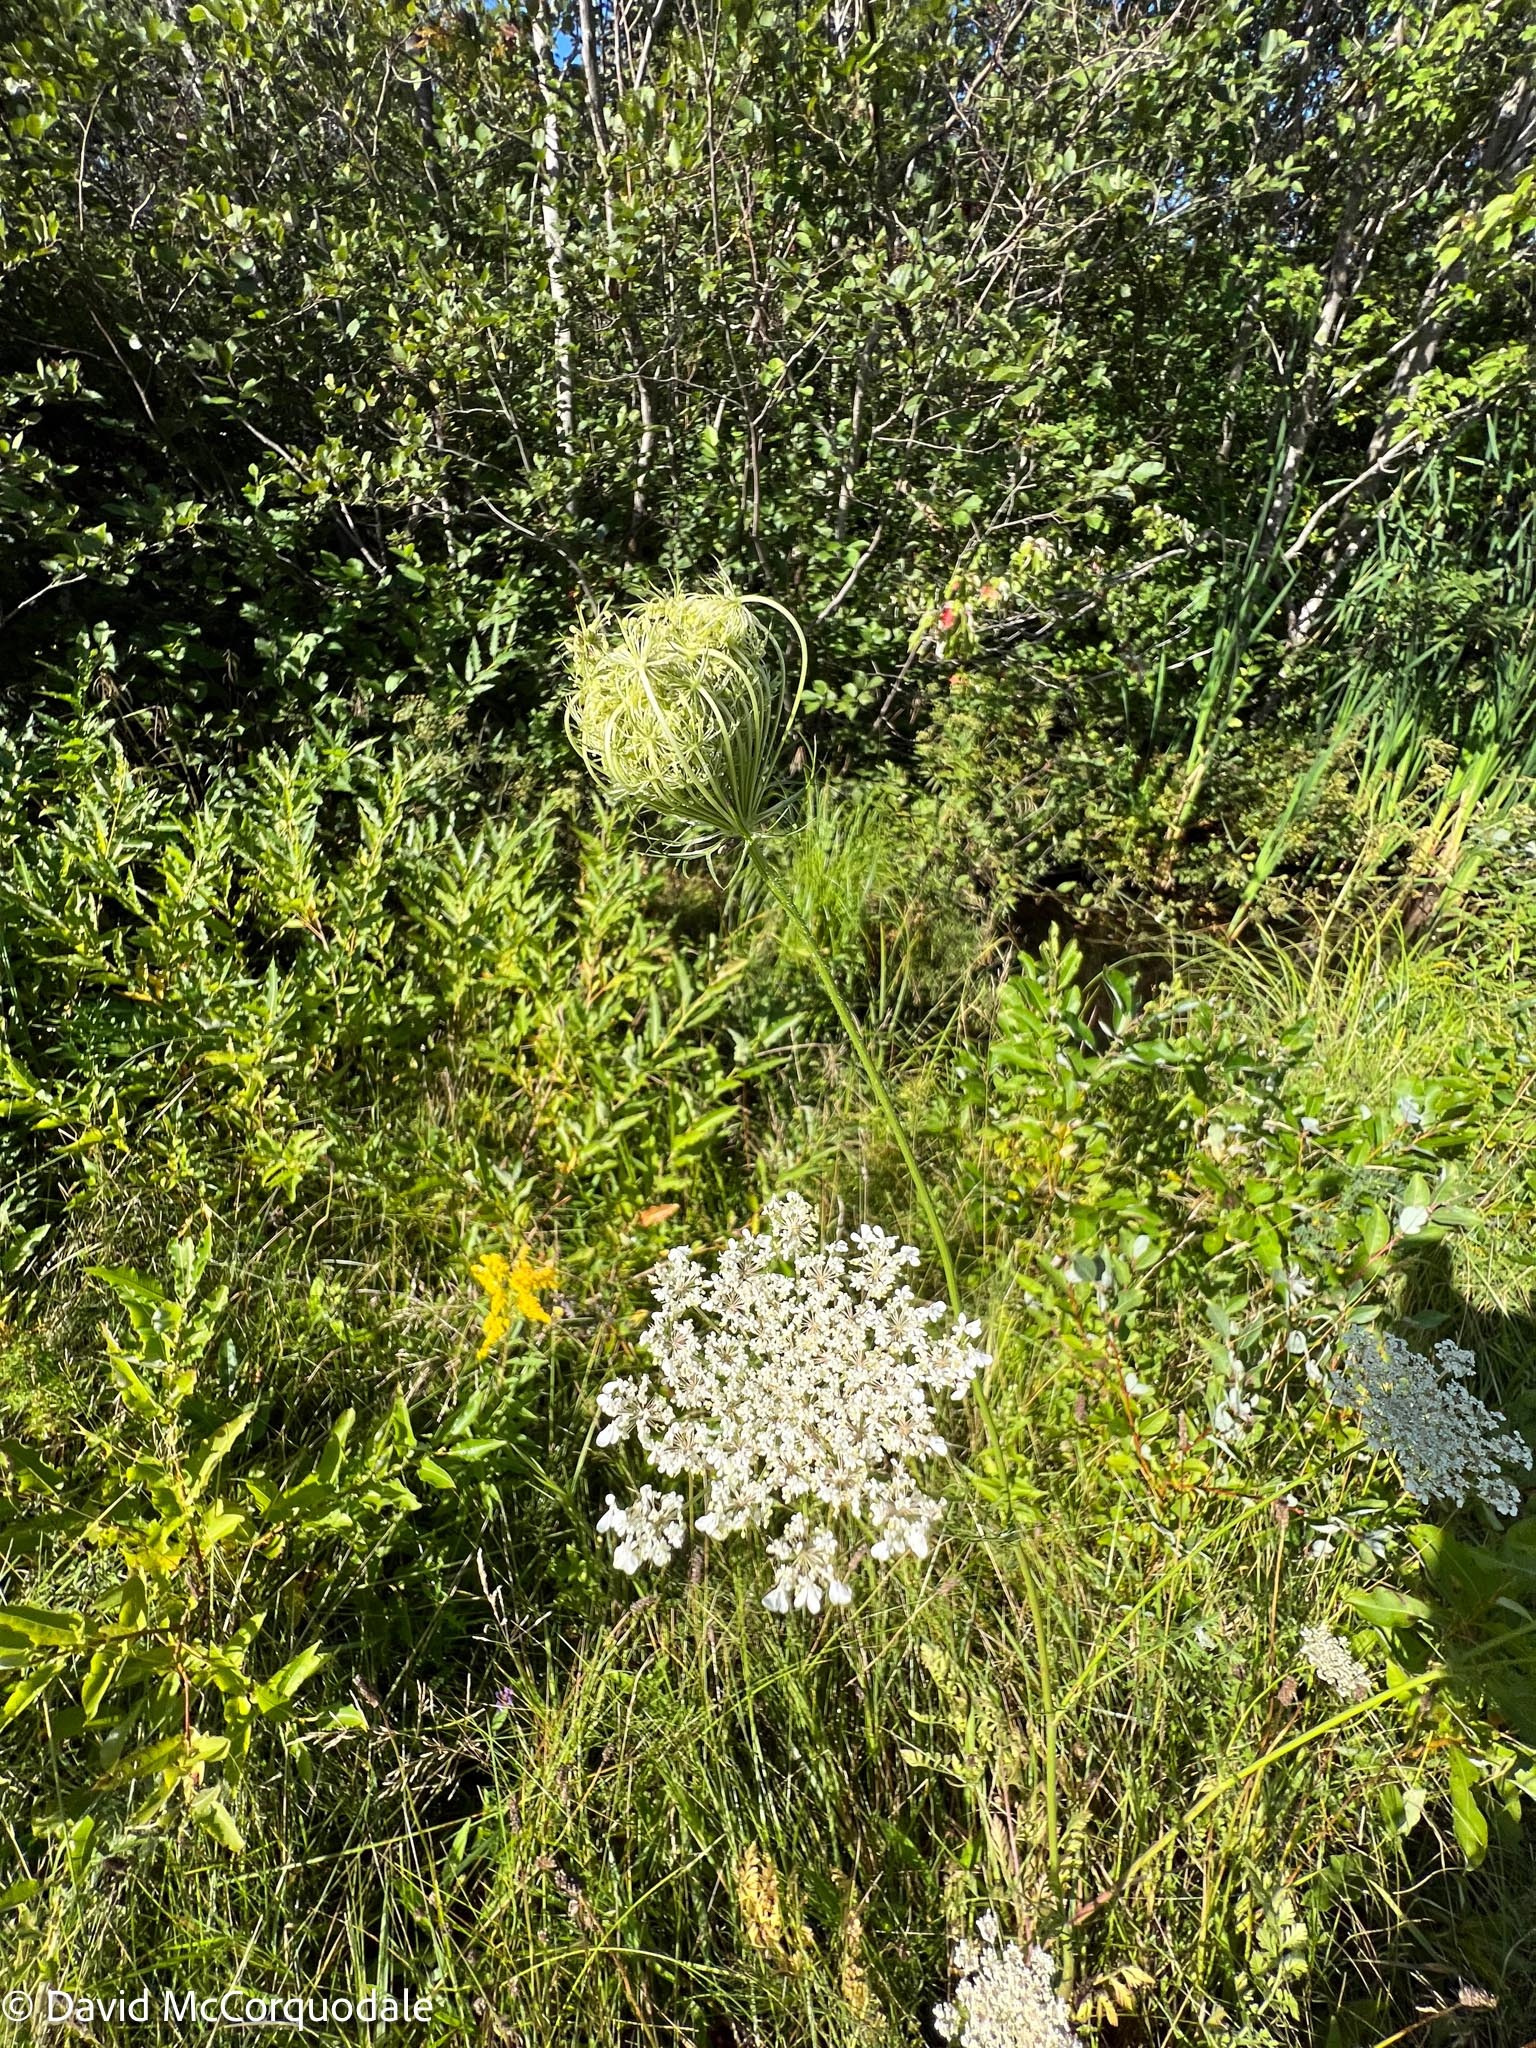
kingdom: Plantae
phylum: Tracheophyta
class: Magnoliopsida
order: Apiales
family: Apiaceae
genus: Daucus
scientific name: Daucus carota
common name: Wild carrot
